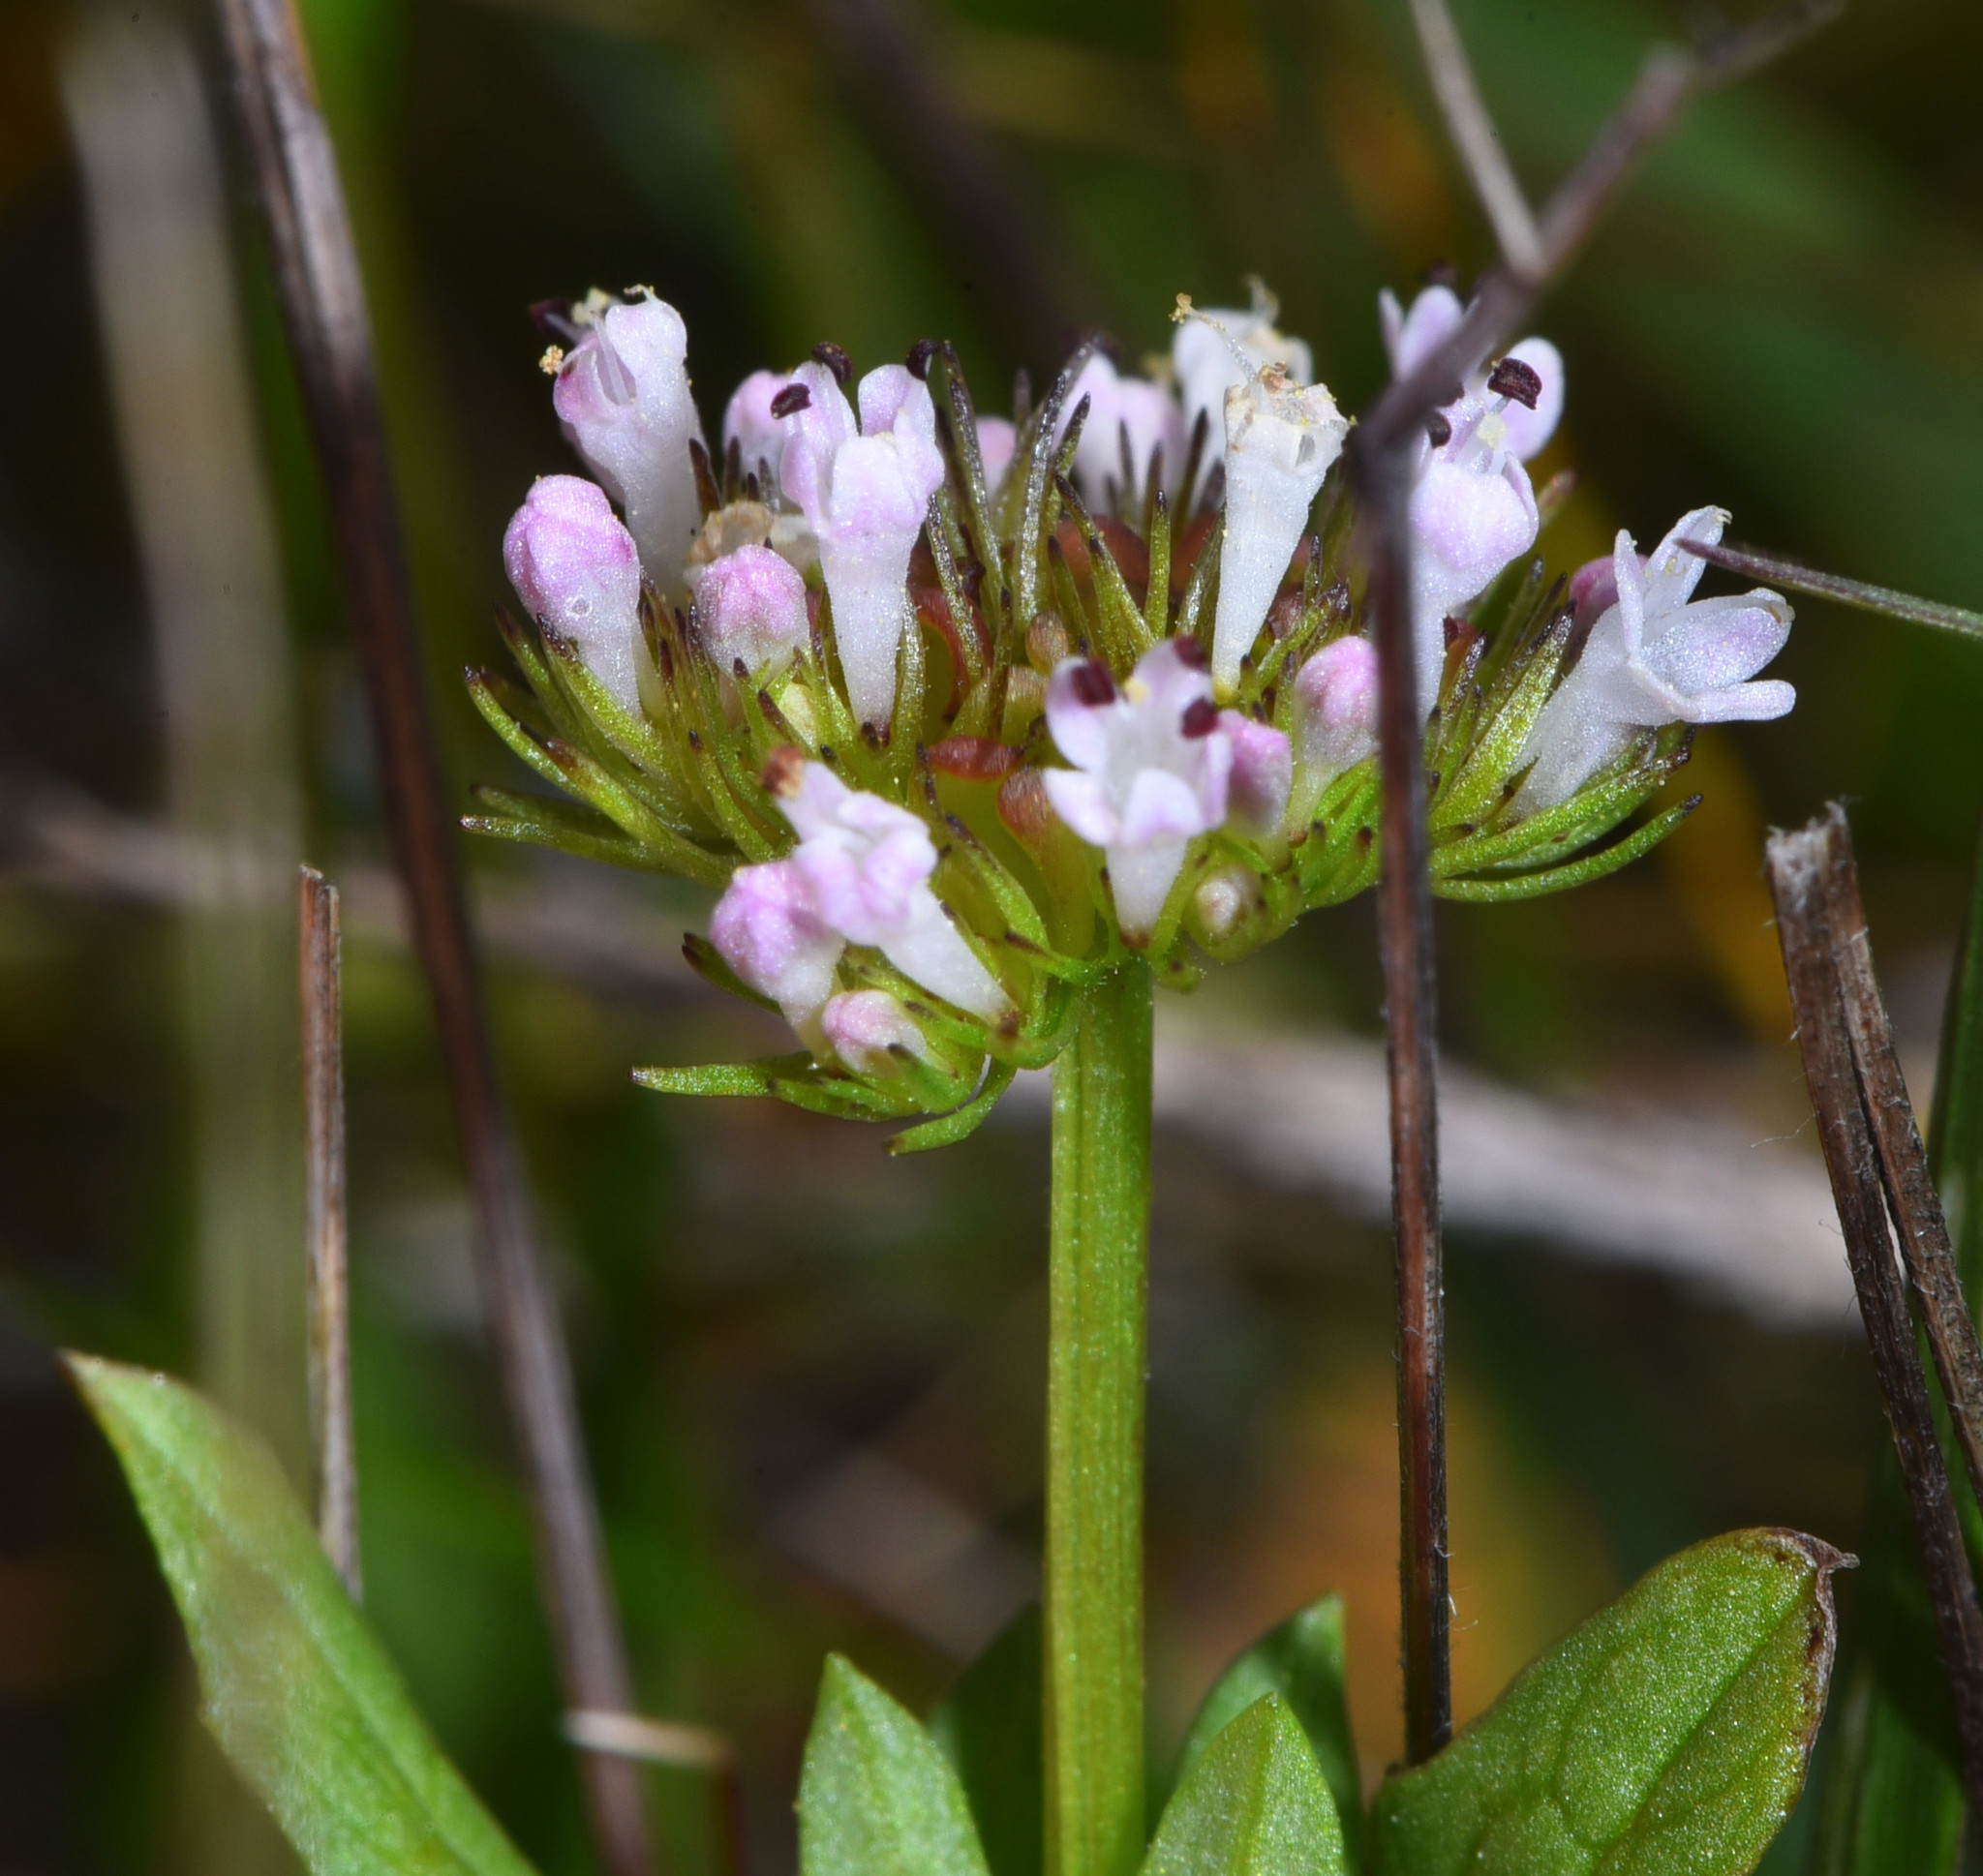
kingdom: Plantae
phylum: Tracheophyta
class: Magnoliopsida
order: Dipsacales
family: Caprifoliaceae
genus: Plectritis
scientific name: Plectritis macroptera
